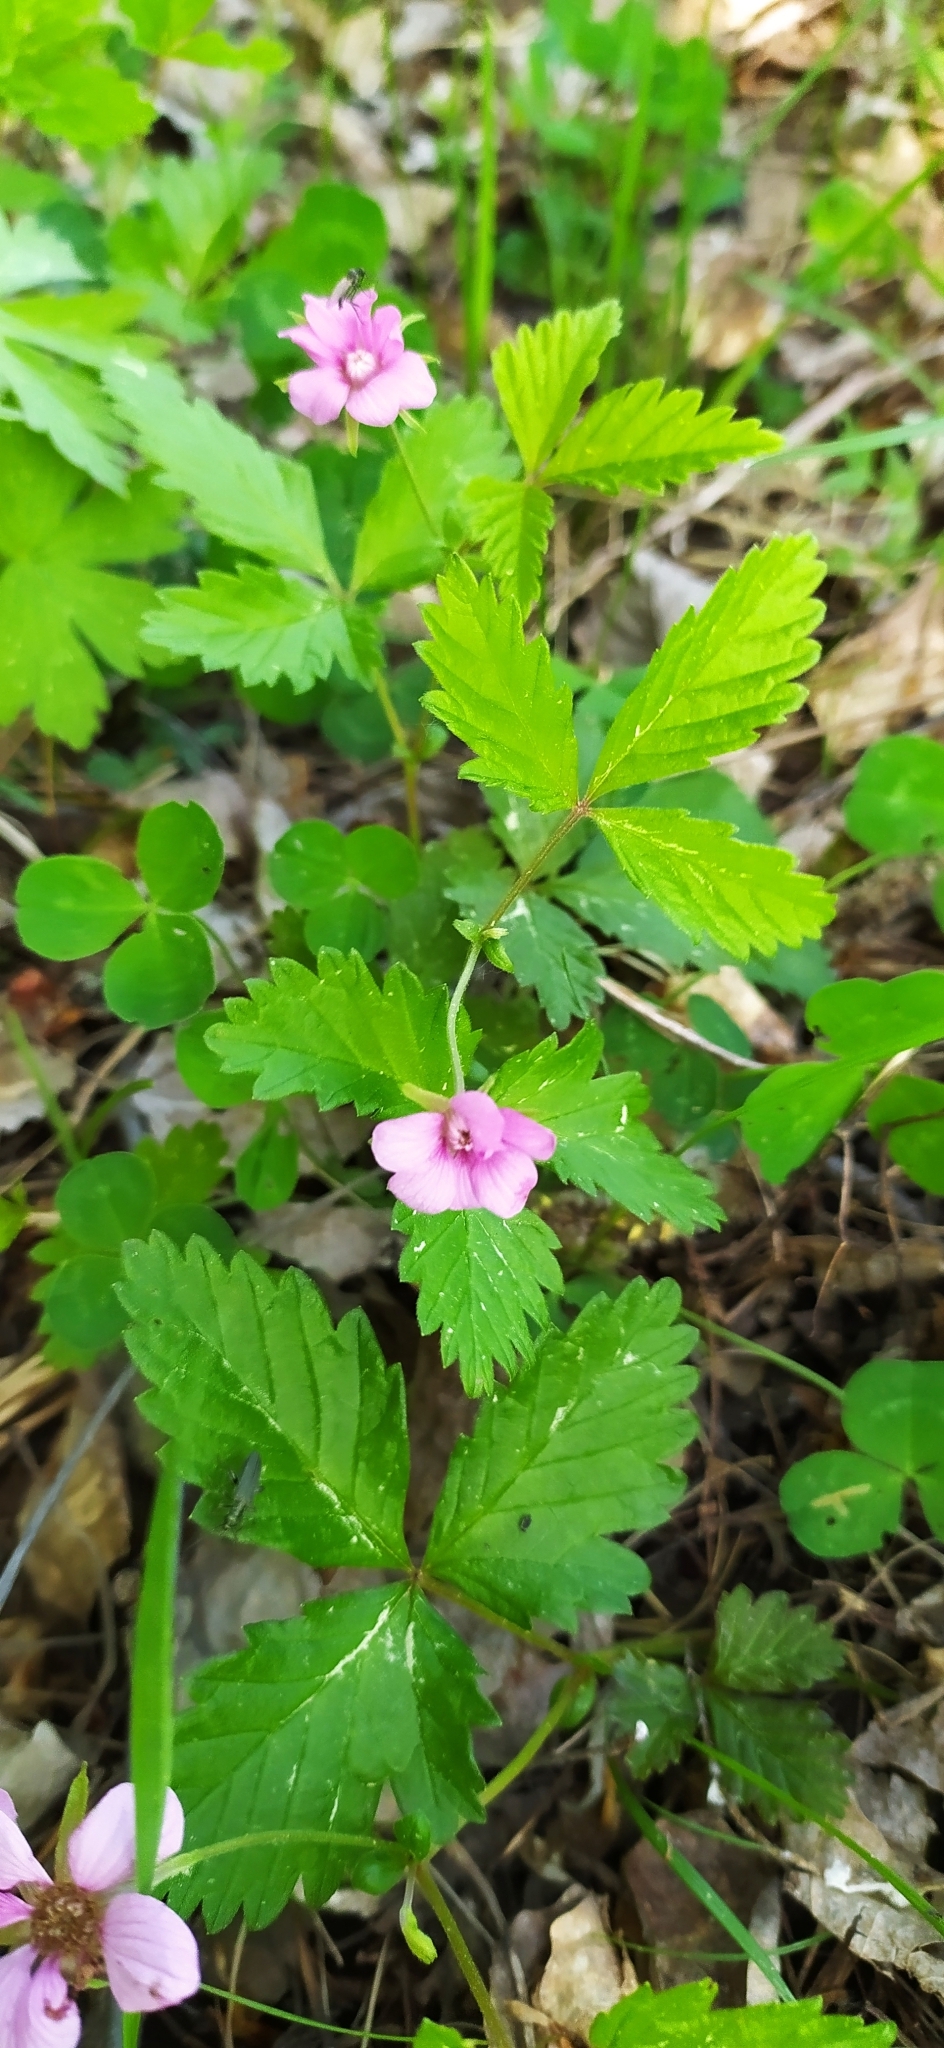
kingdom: Plantae
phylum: Tracheophyta
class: Magnoliopsida
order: Rosales
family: Rosaceae
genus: Rubus
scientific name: Rubus arcticus
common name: Arctic bramble
